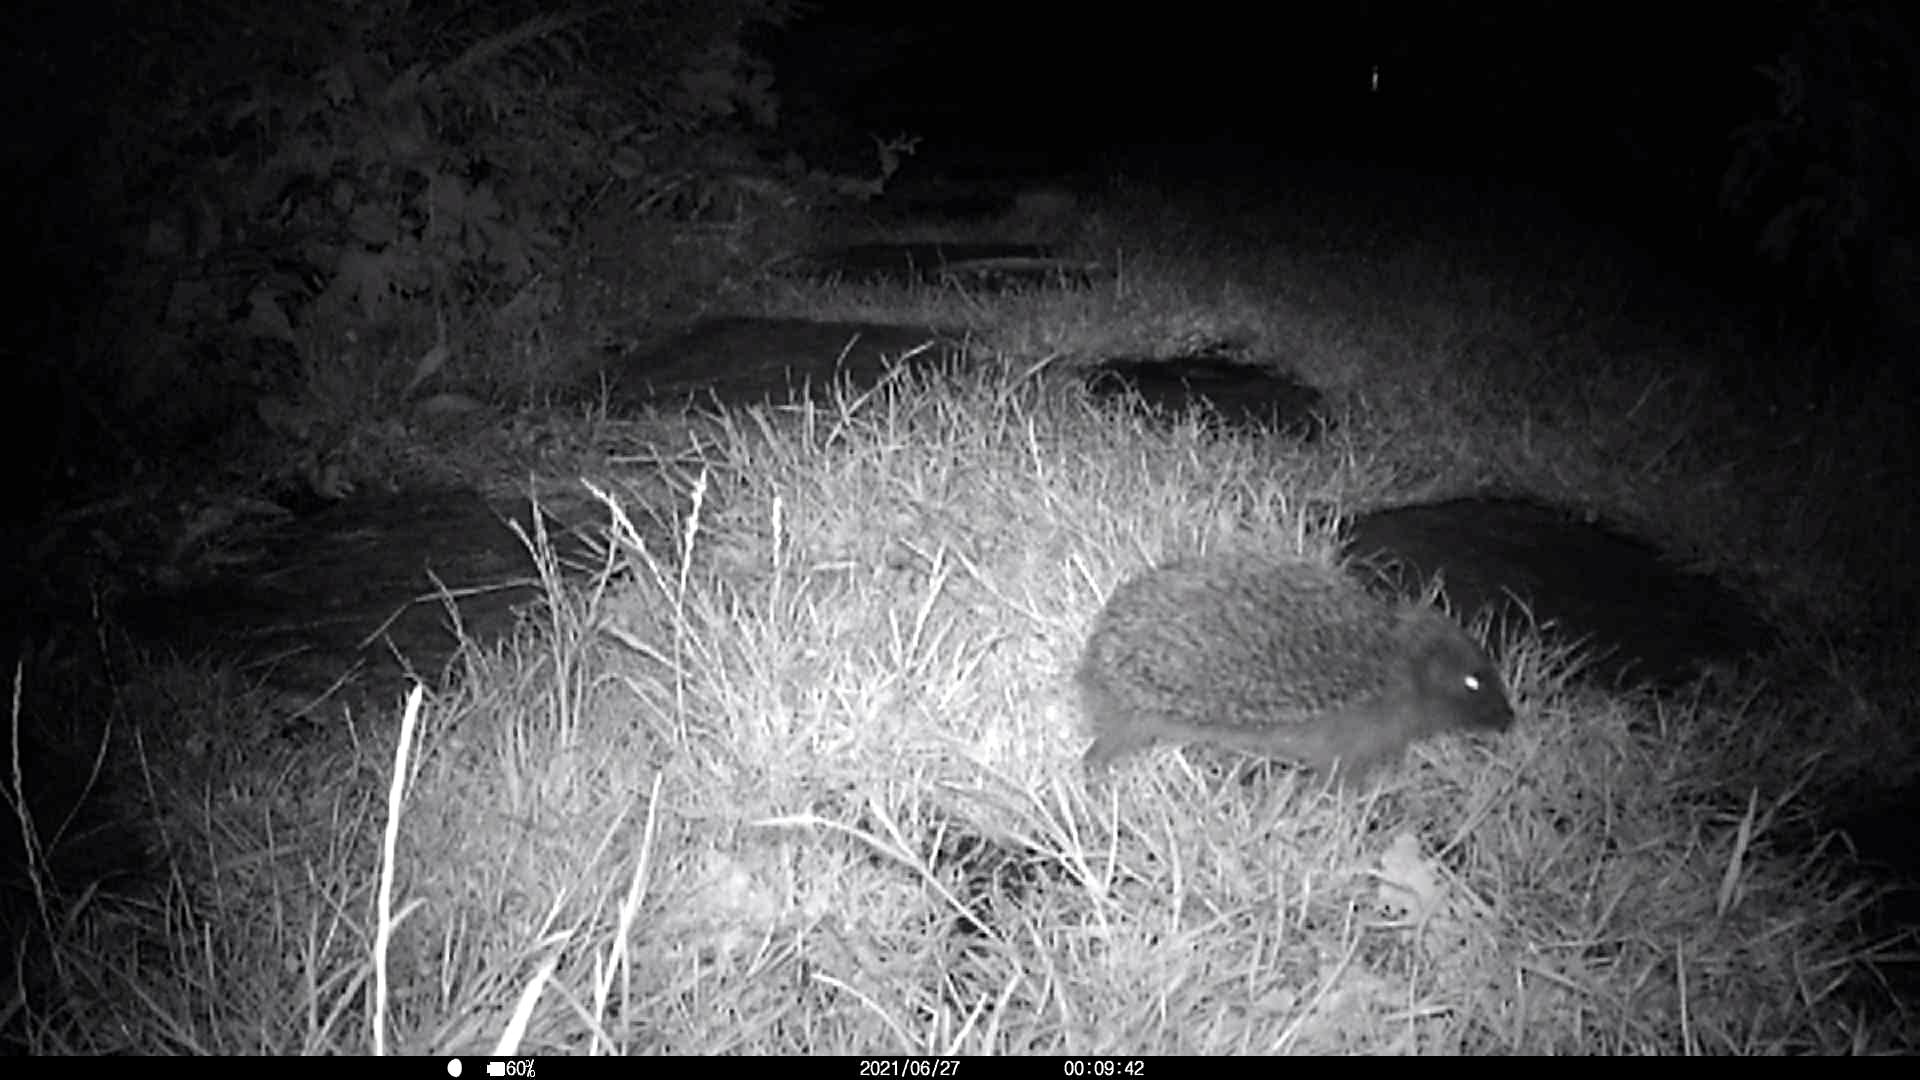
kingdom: Animalia
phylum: Chordata
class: Mammalia
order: Erinaceomorpha
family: Erinaceidae
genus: Erinaceus
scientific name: Erinaceus europaeus
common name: West european hedgehog
